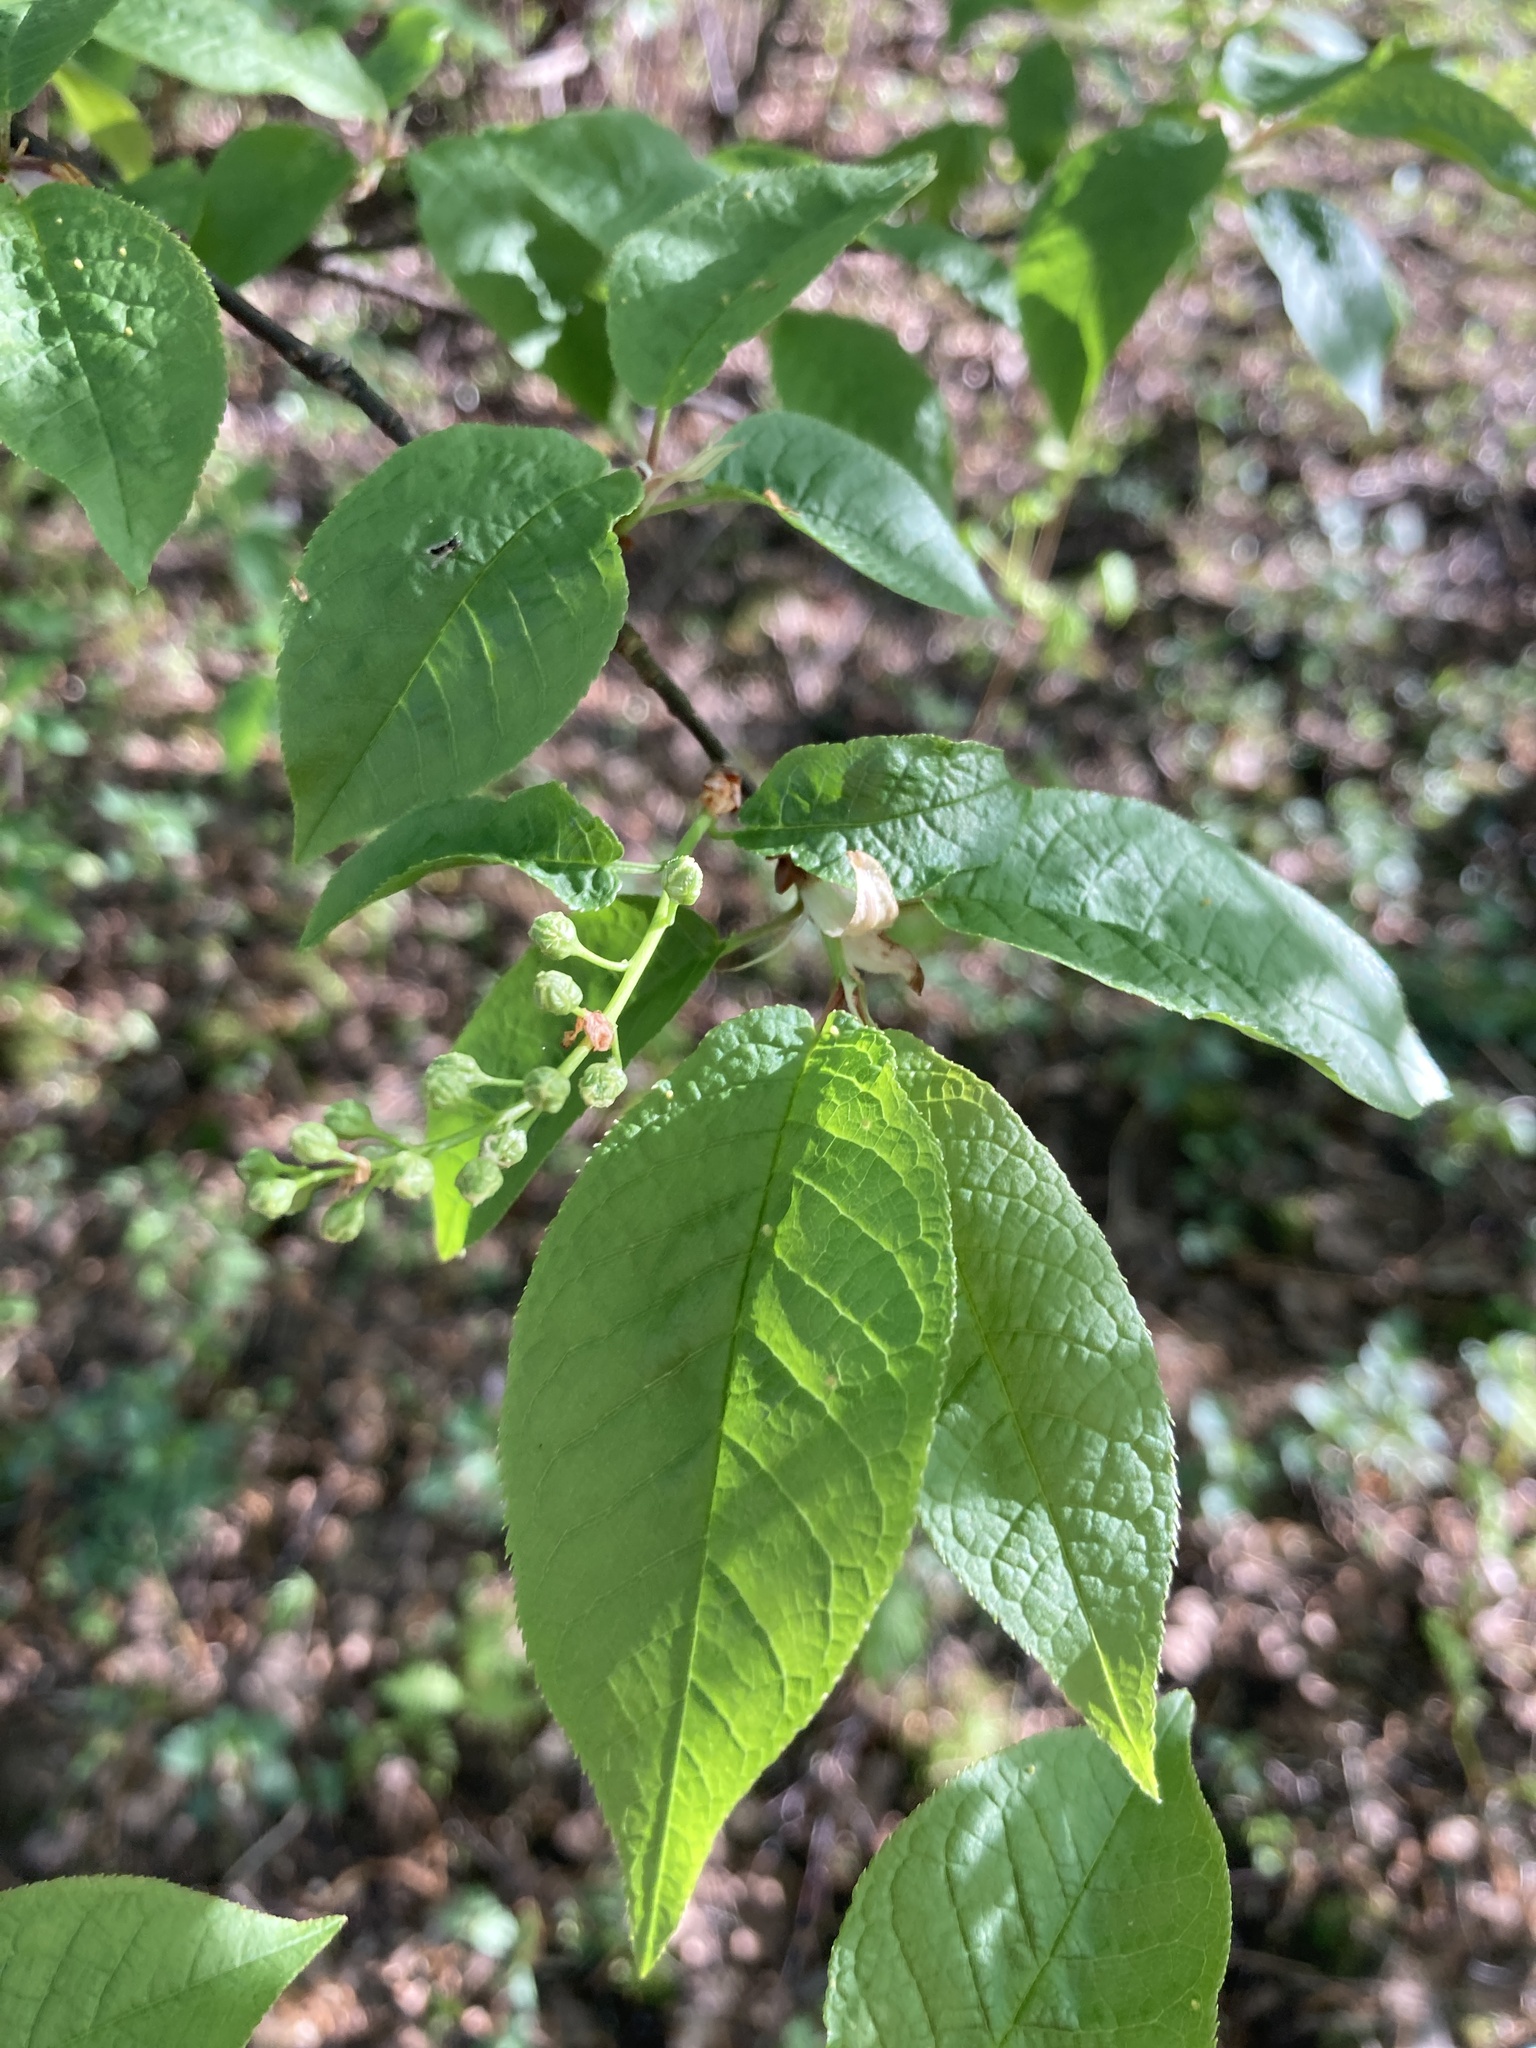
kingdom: Plantae
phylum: Tracheophyta
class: Magnoliopsida
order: Rosales
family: Rosaceae
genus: Prunus
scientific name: Prunus padus
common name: Bird cherry
